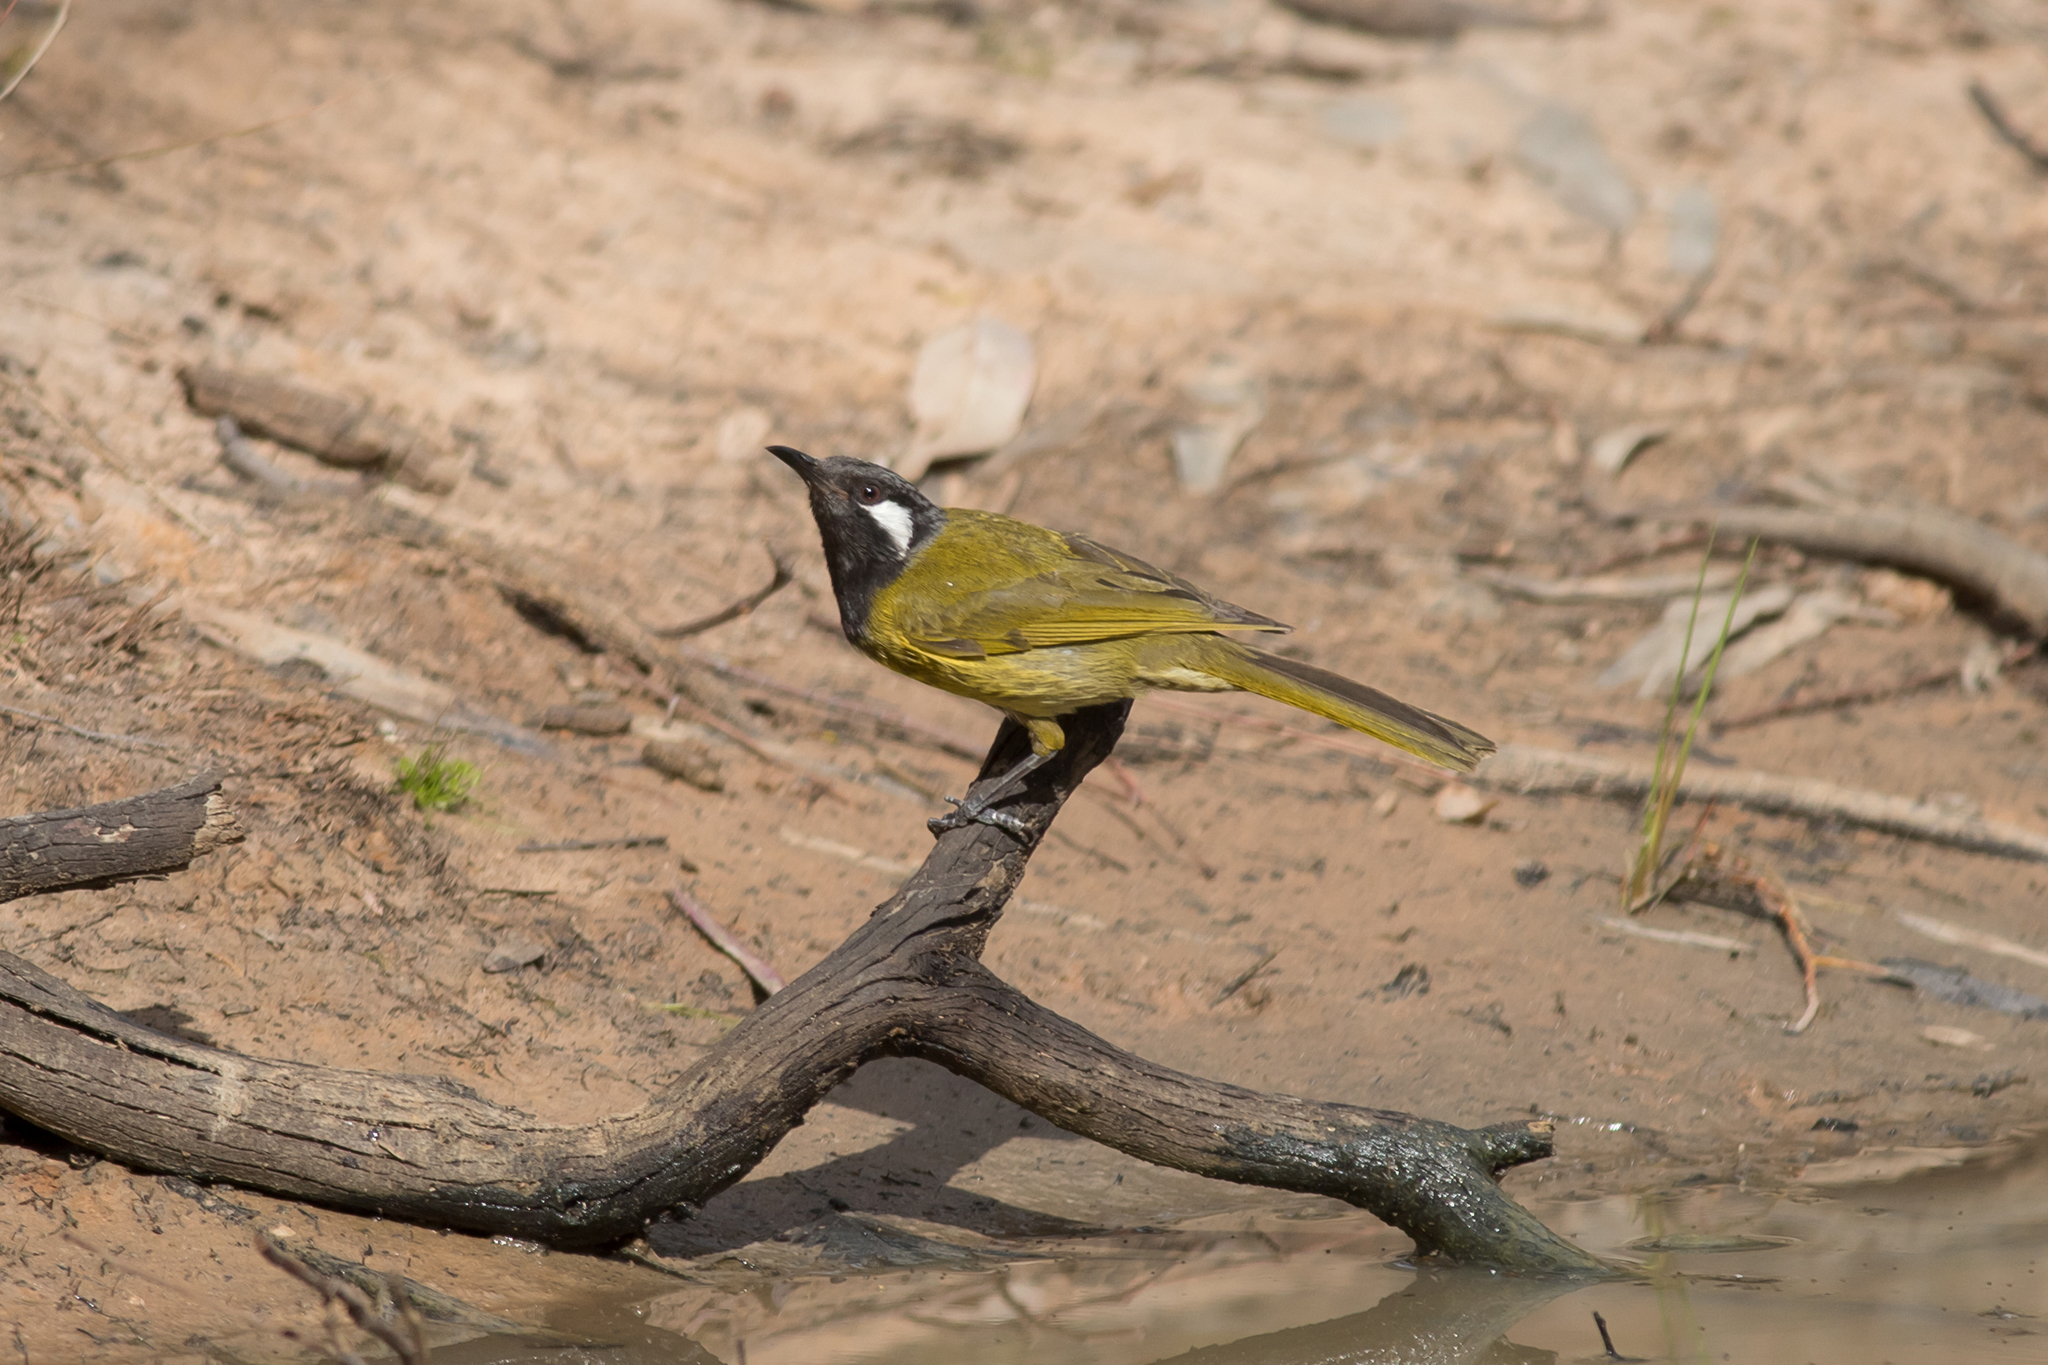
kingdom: Animalia
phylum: Chordata
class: Aves
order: Passeriformes
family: Meliphagidae
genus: Nesoptilotis
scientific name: Nesoptilotis leucotis
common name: White-eared honeyeater
